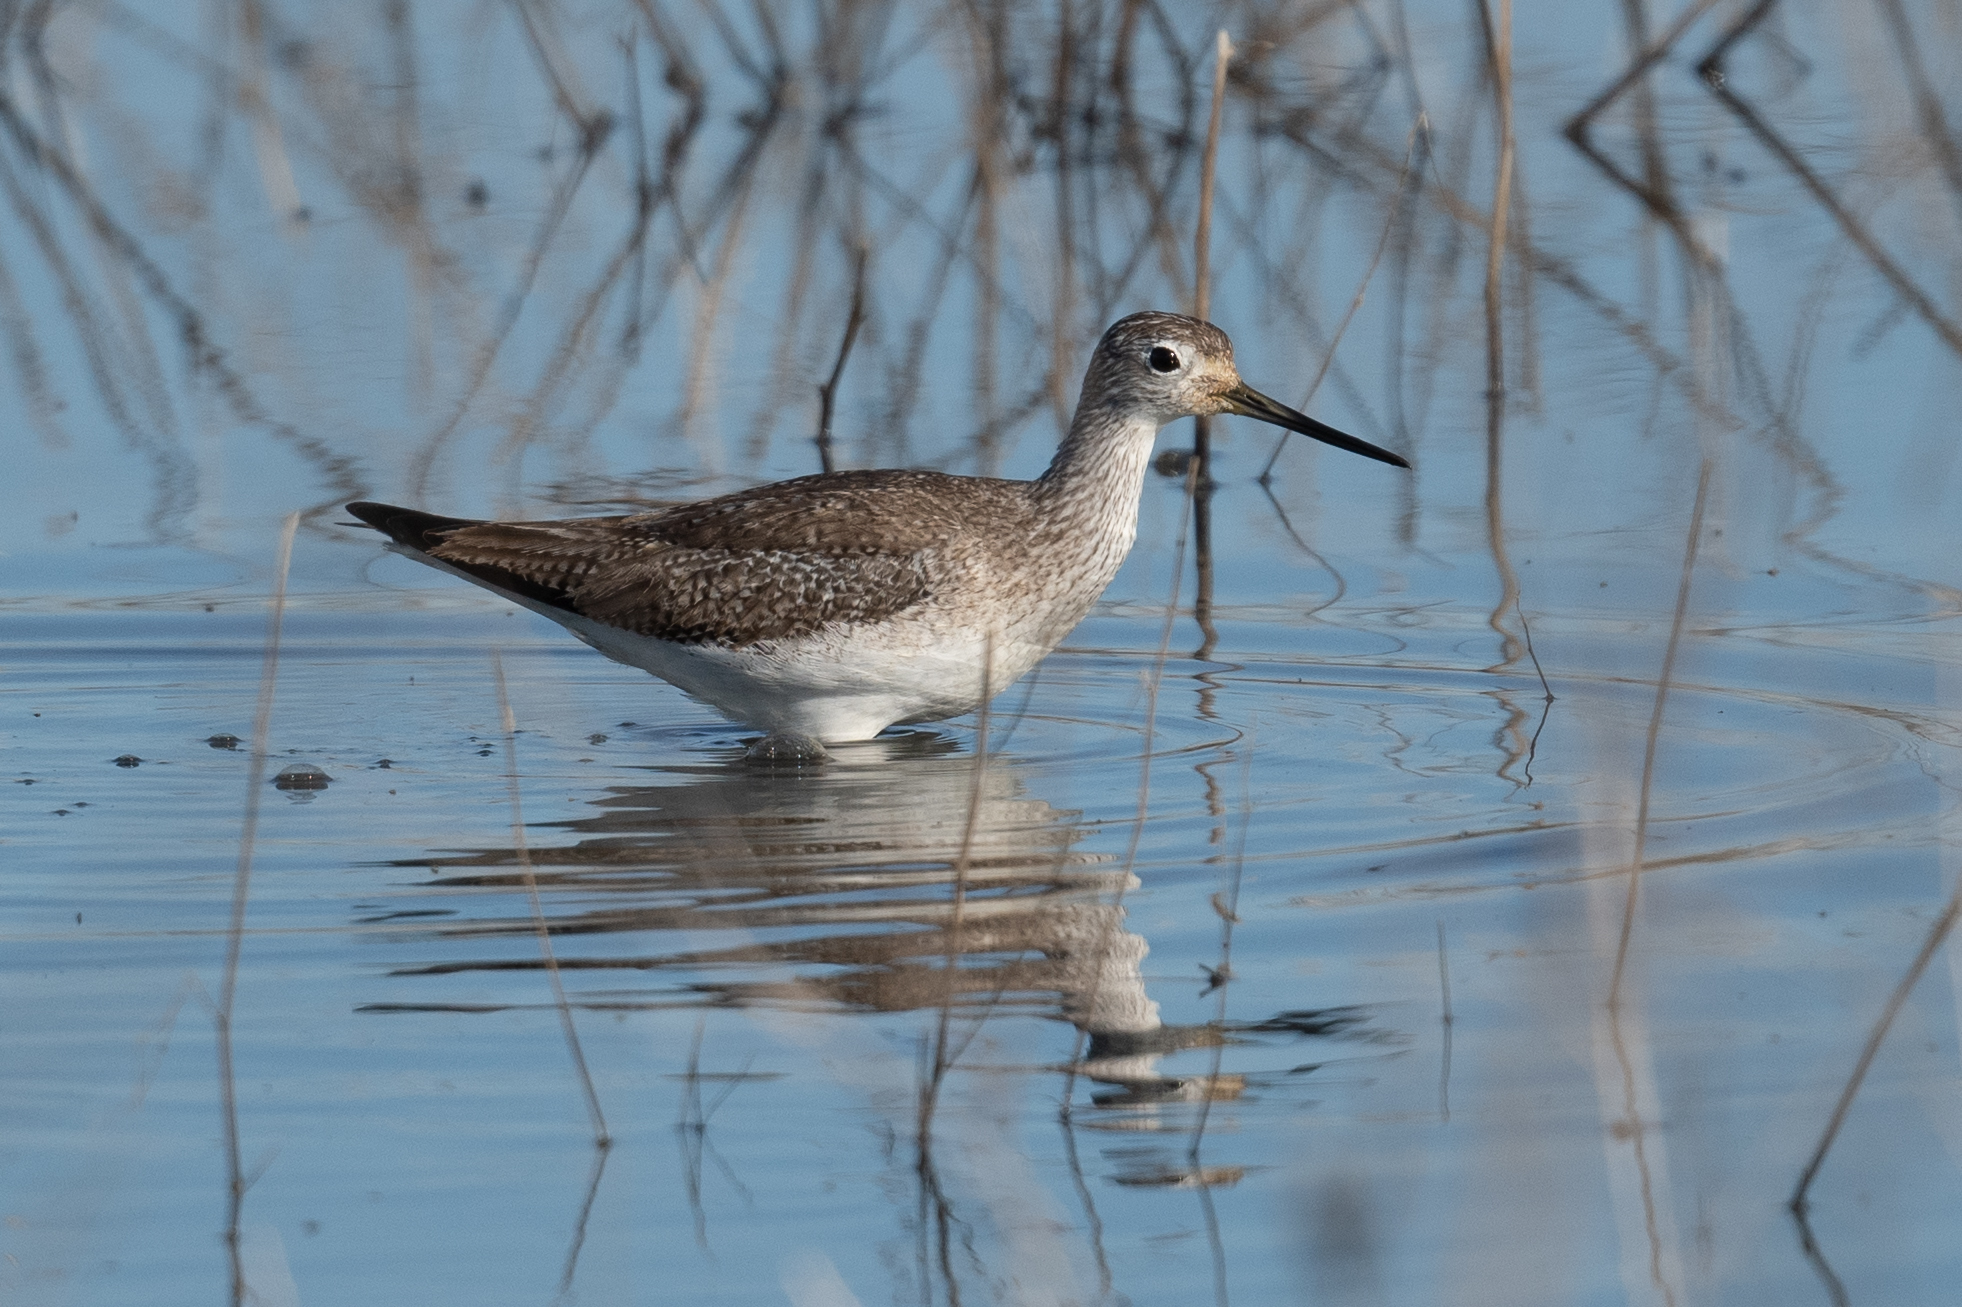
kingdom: Animalia
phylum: Chordata
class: Aves
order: Charadriiformes
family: Scolopacidae
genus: Tringa
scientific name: Tringa melanoleuca
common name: Greater yellowlegs
